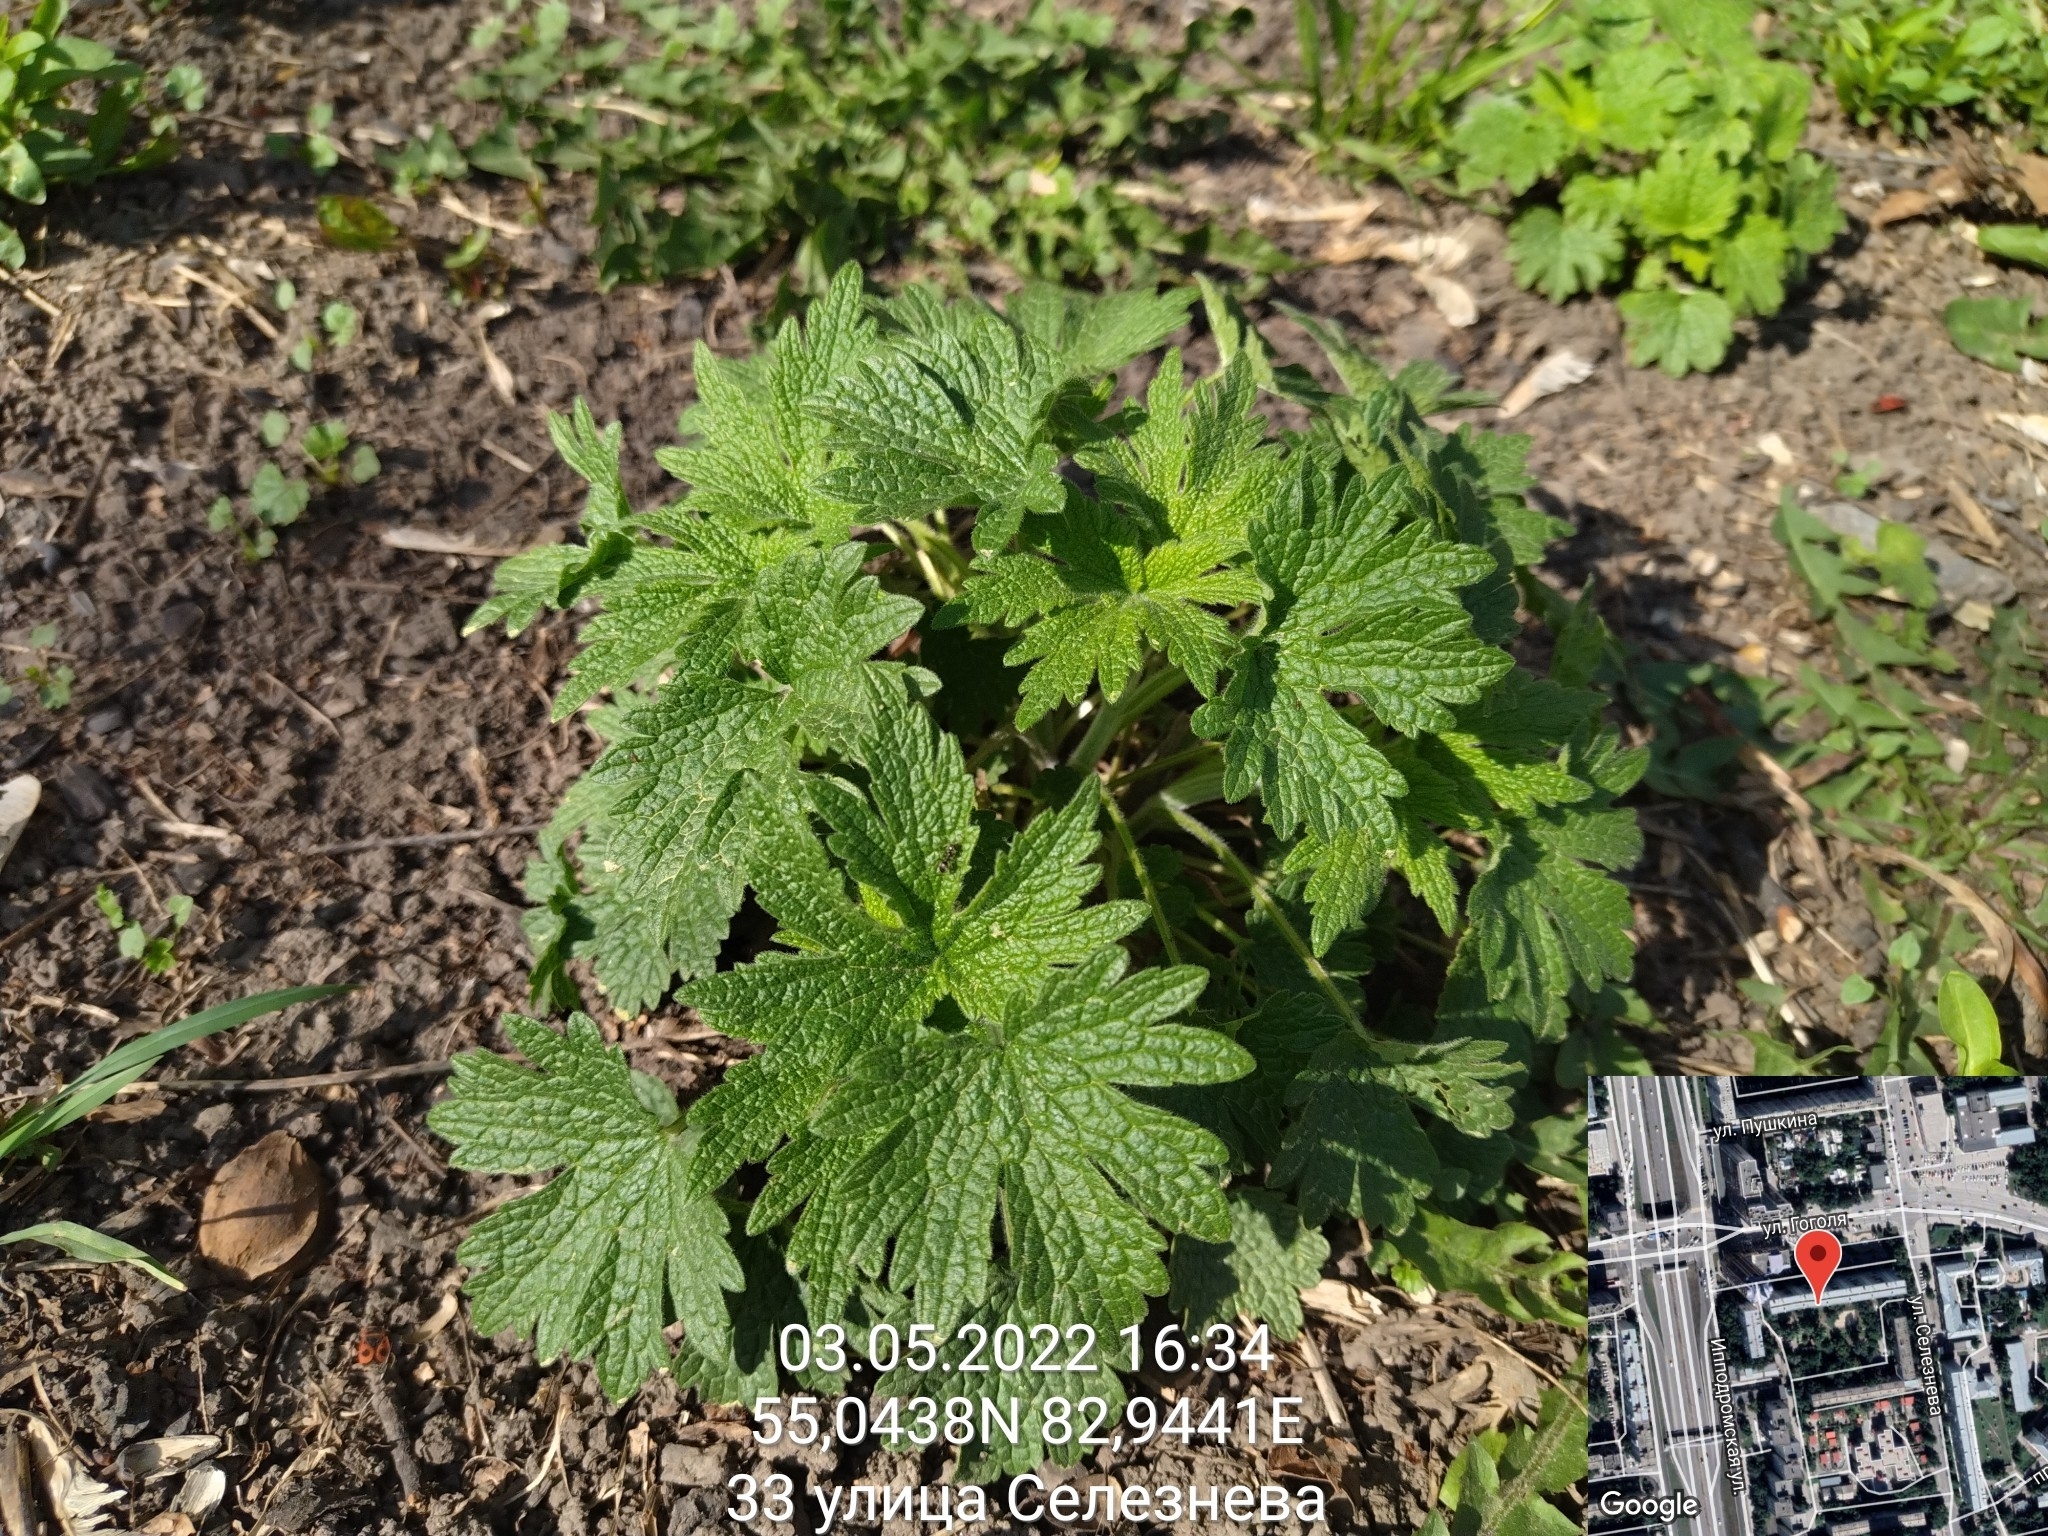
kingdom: Plantae
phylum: Tracheophyta
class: Magnoliopsida
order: Lamiales
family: Lamiaceae
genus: Leonurus
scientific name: Leonurus quinquelobatus
